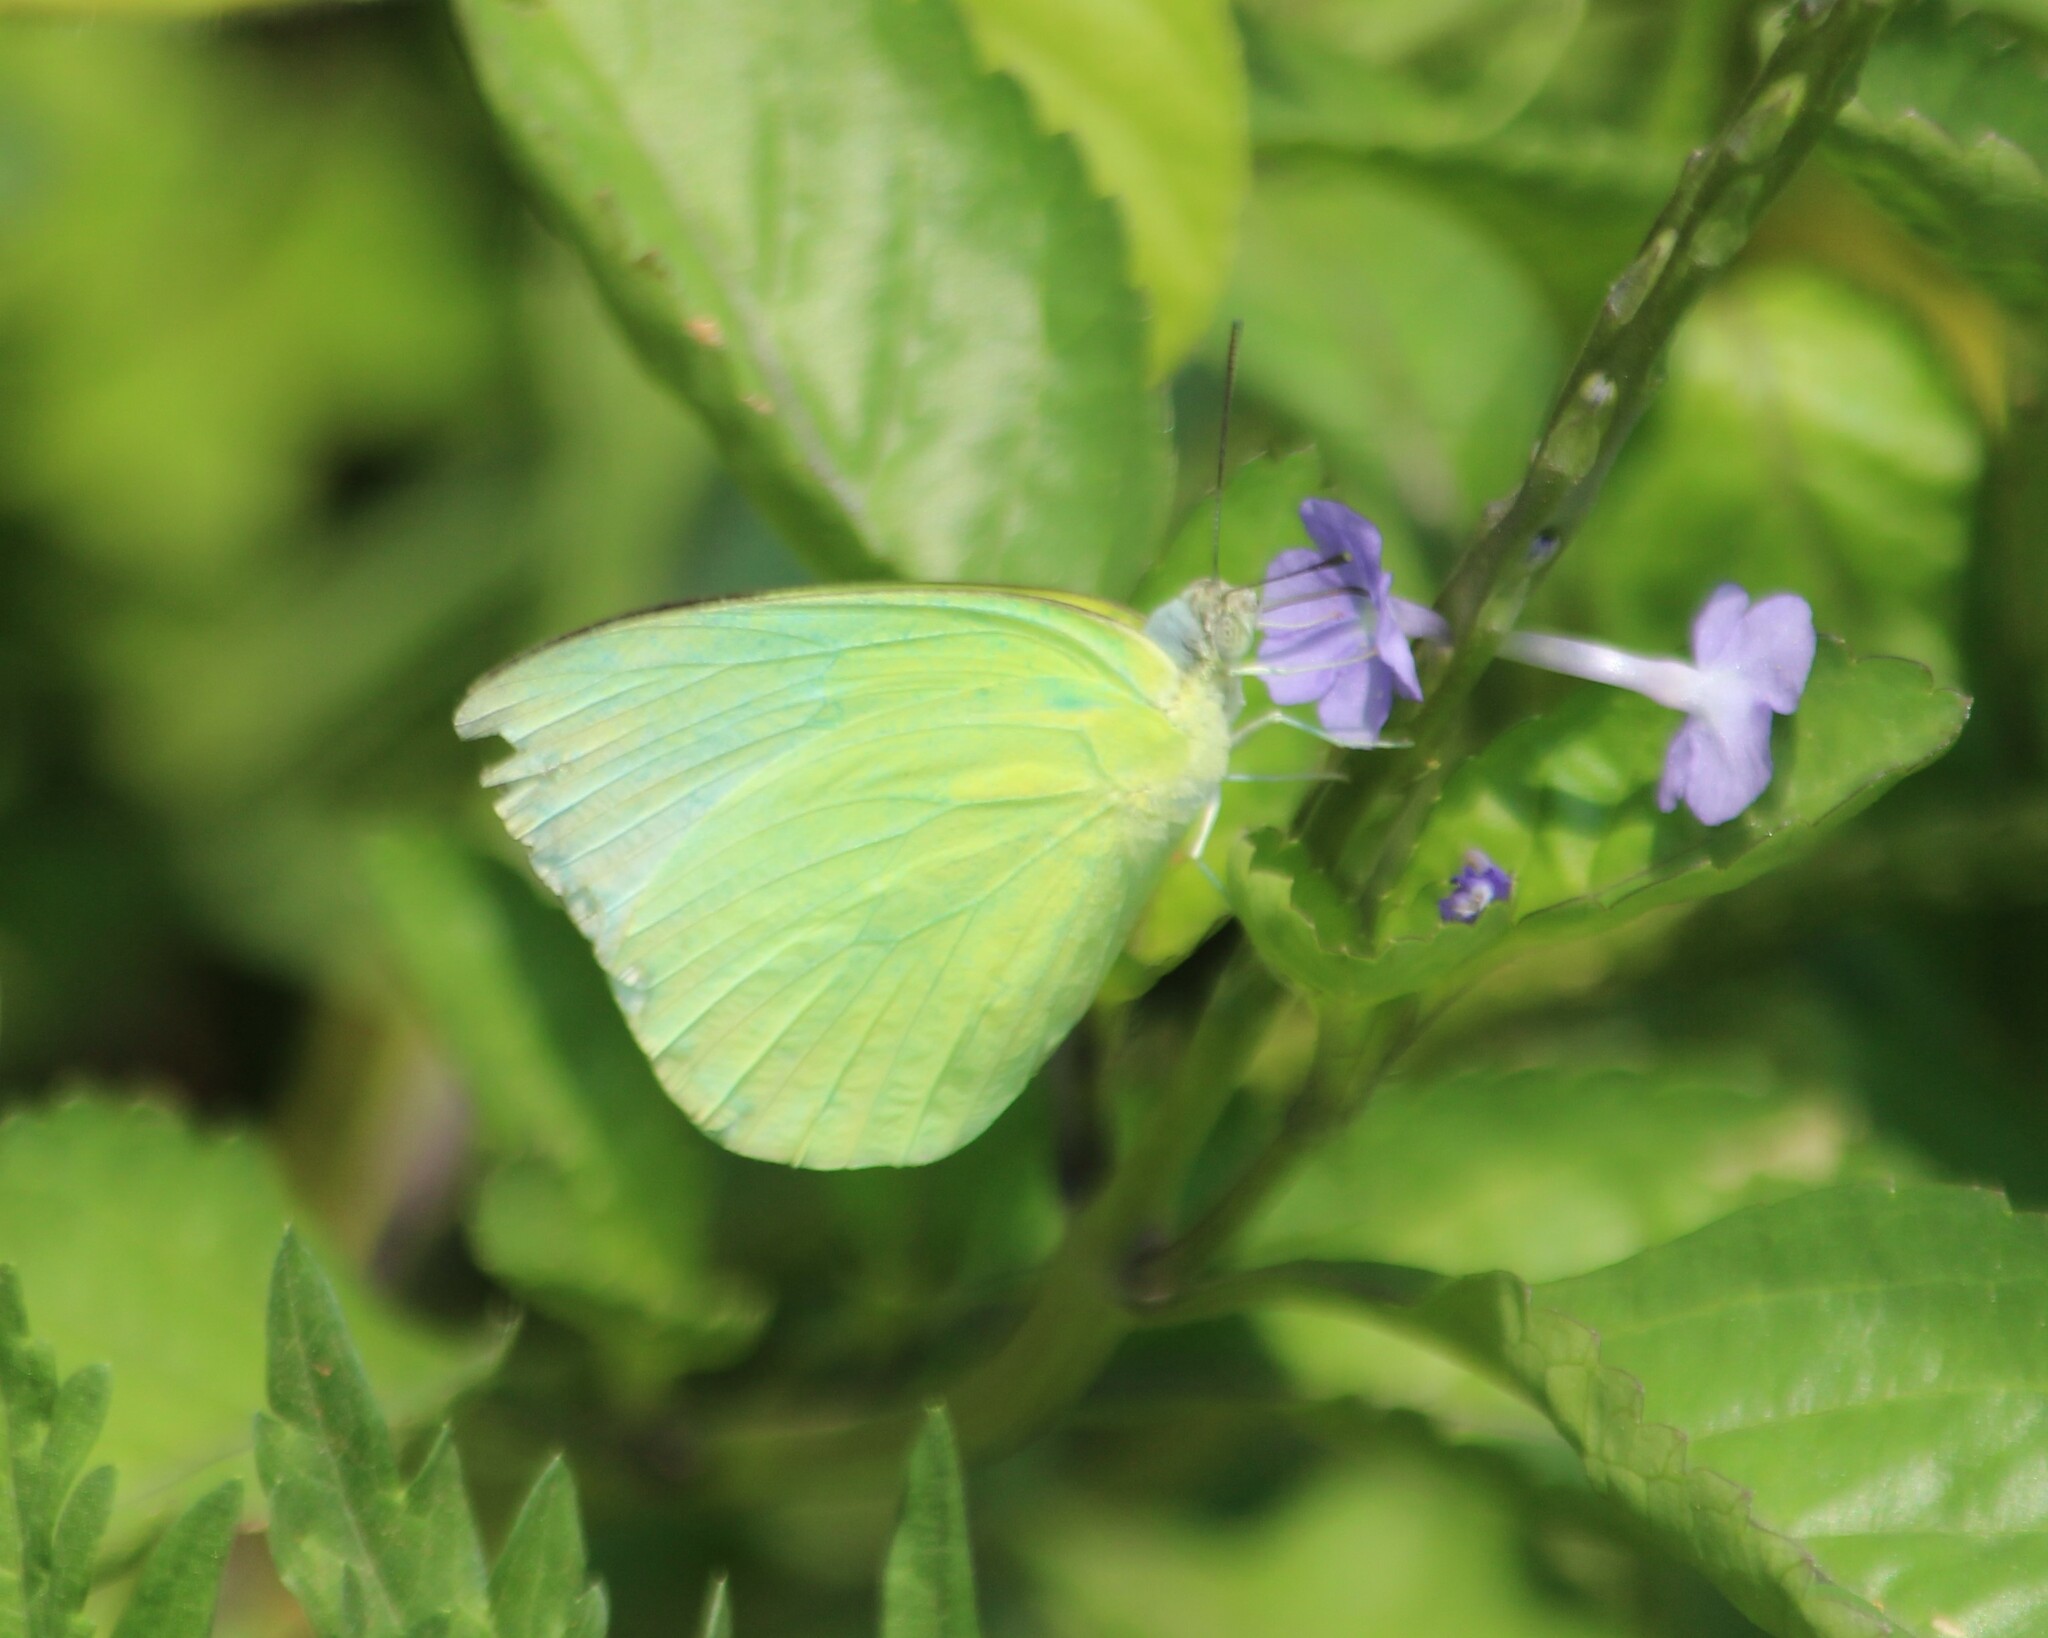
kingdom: Animalia
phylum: Arthropoda
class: Insecta
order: Lepidoptera
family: Pieridae
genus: Catopsilia
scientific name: Catopsilia pomona
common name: Common emigrant
